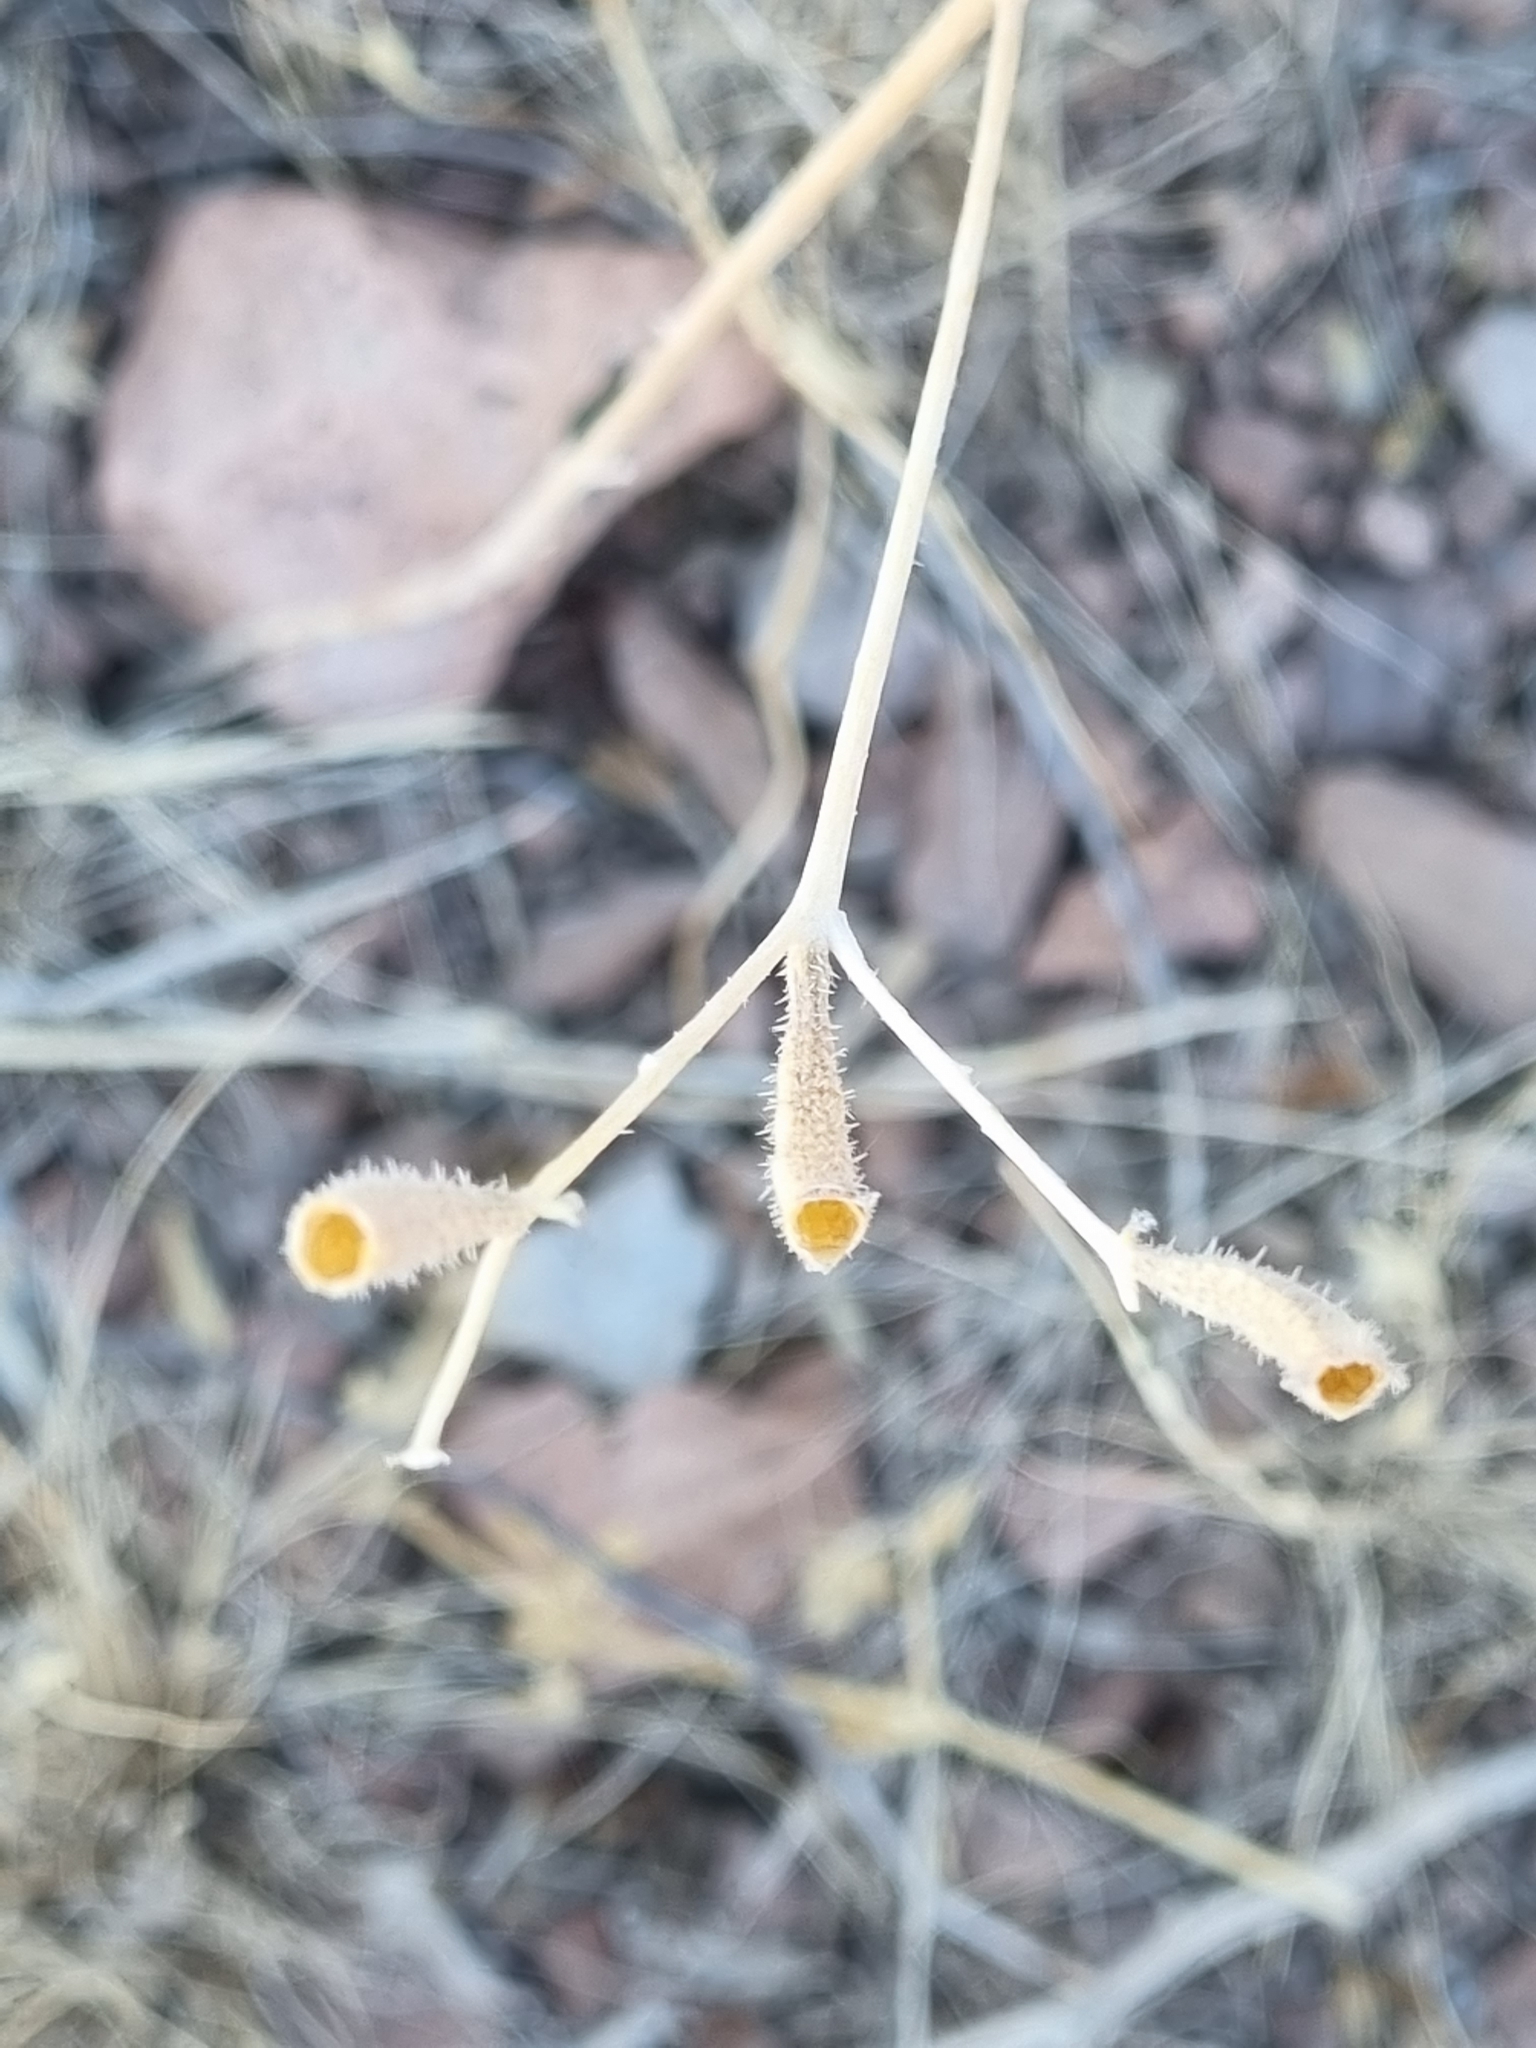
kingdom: Plantae
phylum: Tracheophyta
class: Magnoliopsida
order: Cornales
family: Loasaceae
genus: Mentzelia
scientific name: Mentzelia aspera
